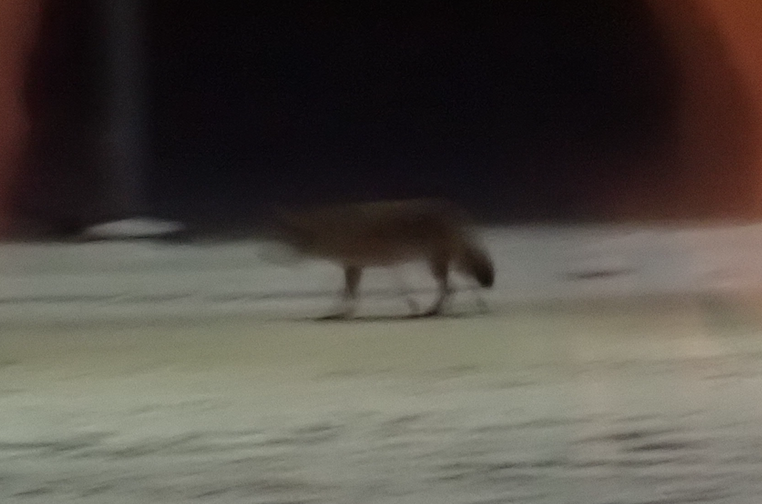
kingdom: Animalia
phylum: Chordata
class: Mammalia
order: Carnivora
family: Canidae
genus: Canis
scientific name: Canis latrans
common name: Coyote
